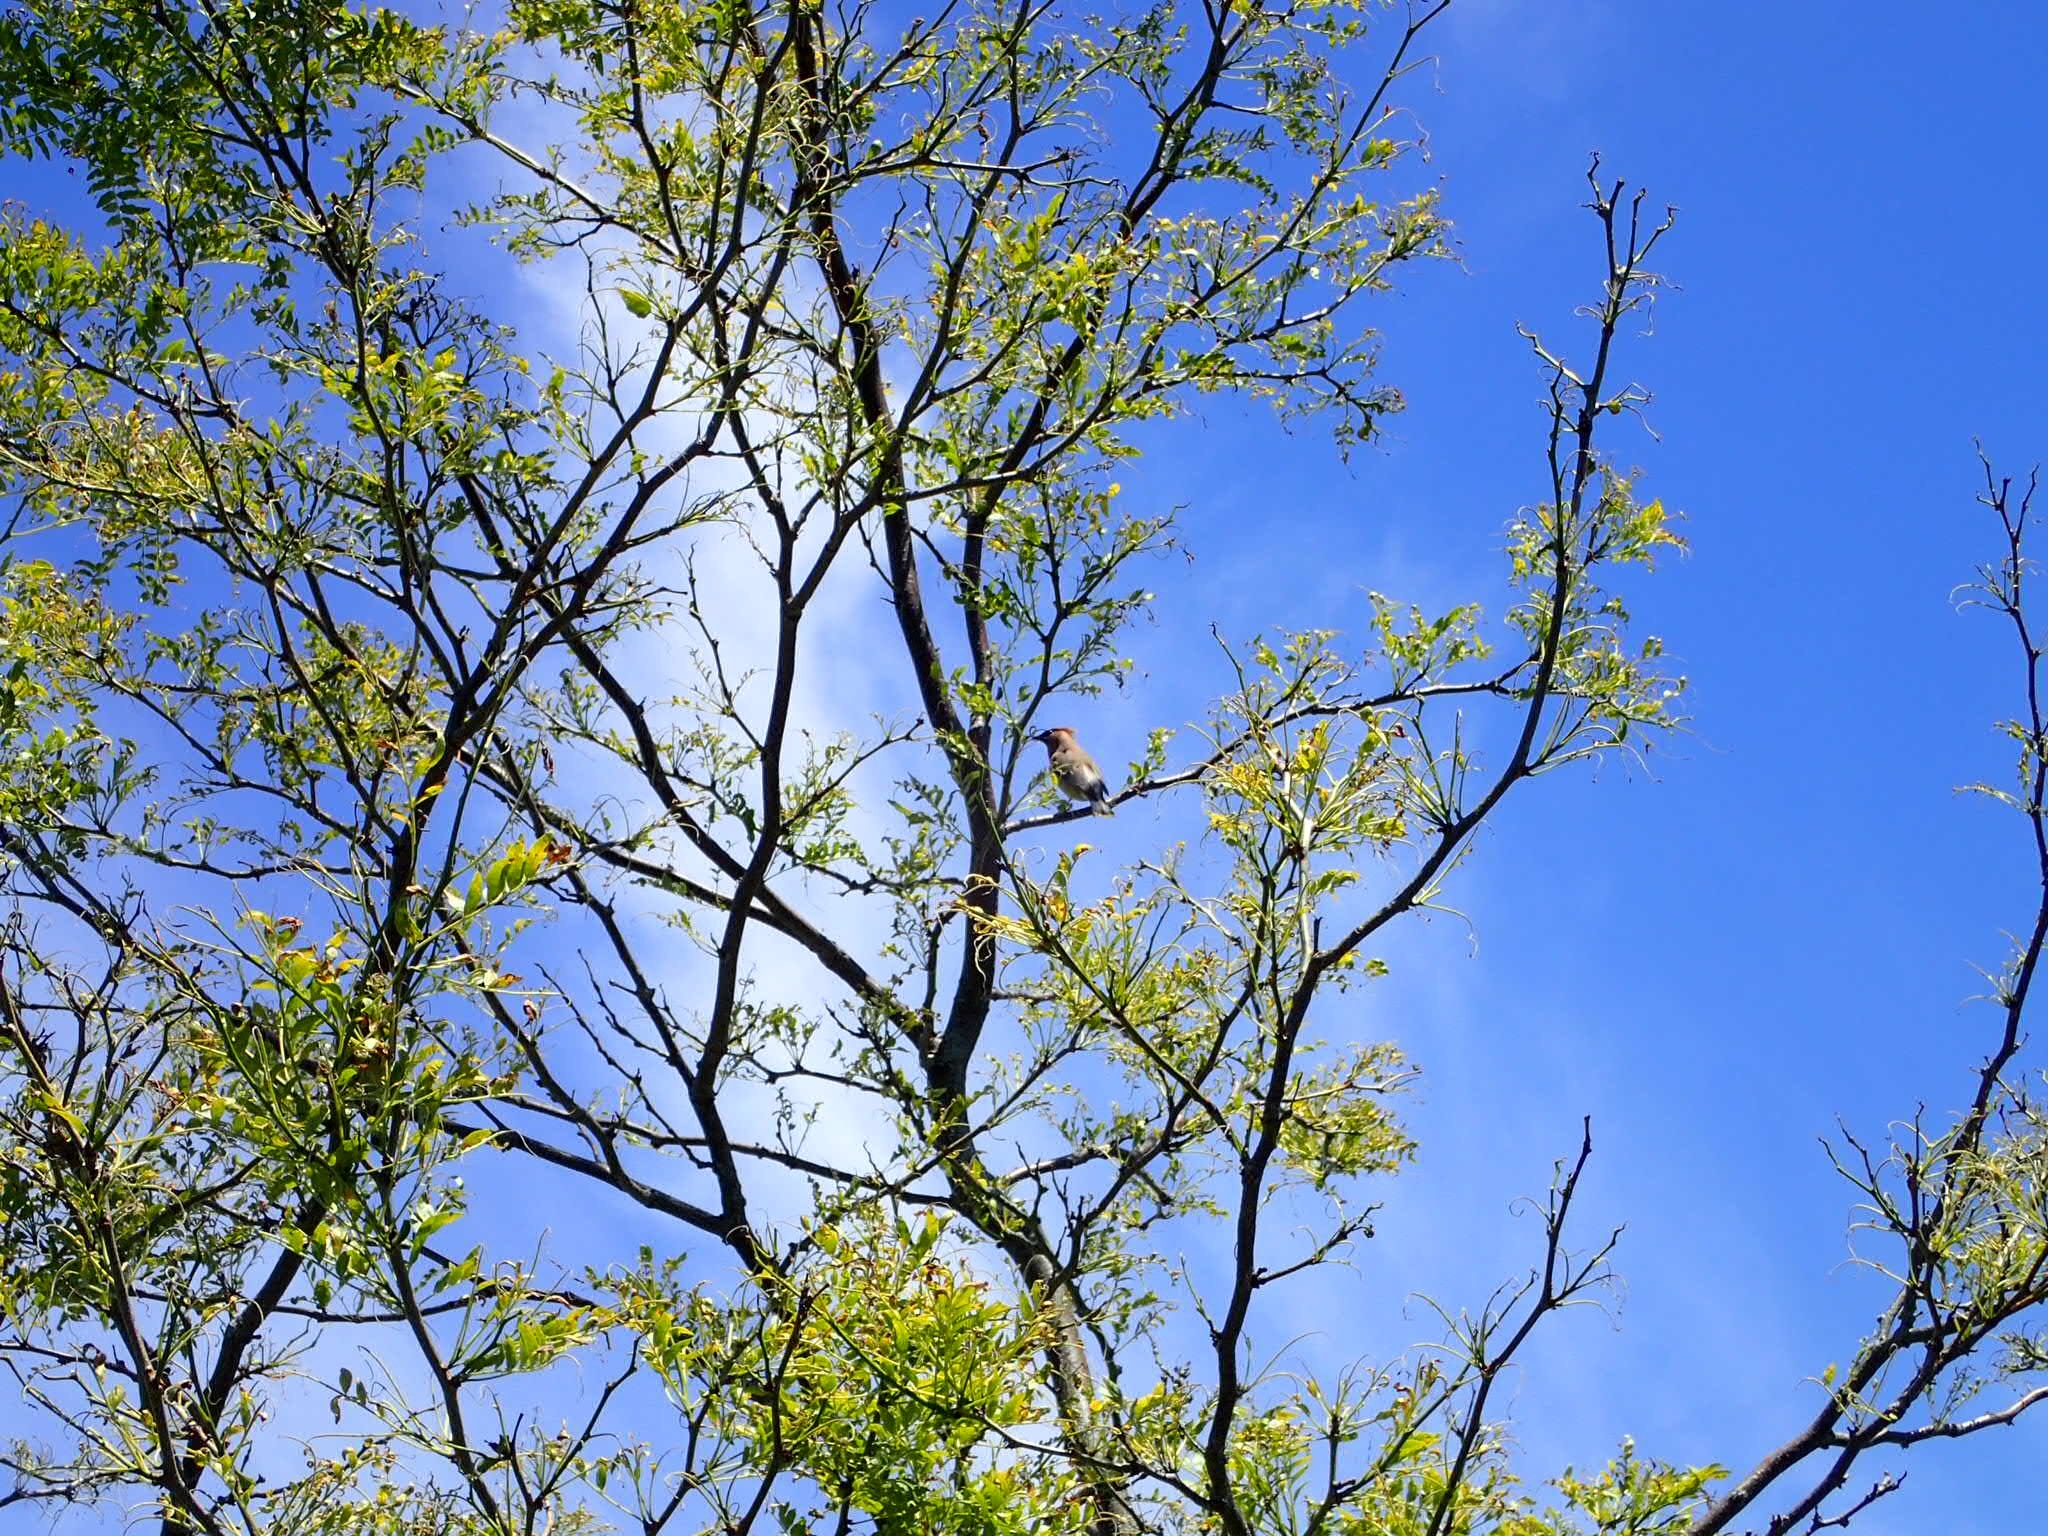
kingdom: Animalia
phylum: Chordata
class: Aves
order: Passeriformes
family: Bombycillidae
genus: Bombycilla
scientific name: Bombycilla cedrorum
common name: Cedar waxwing
